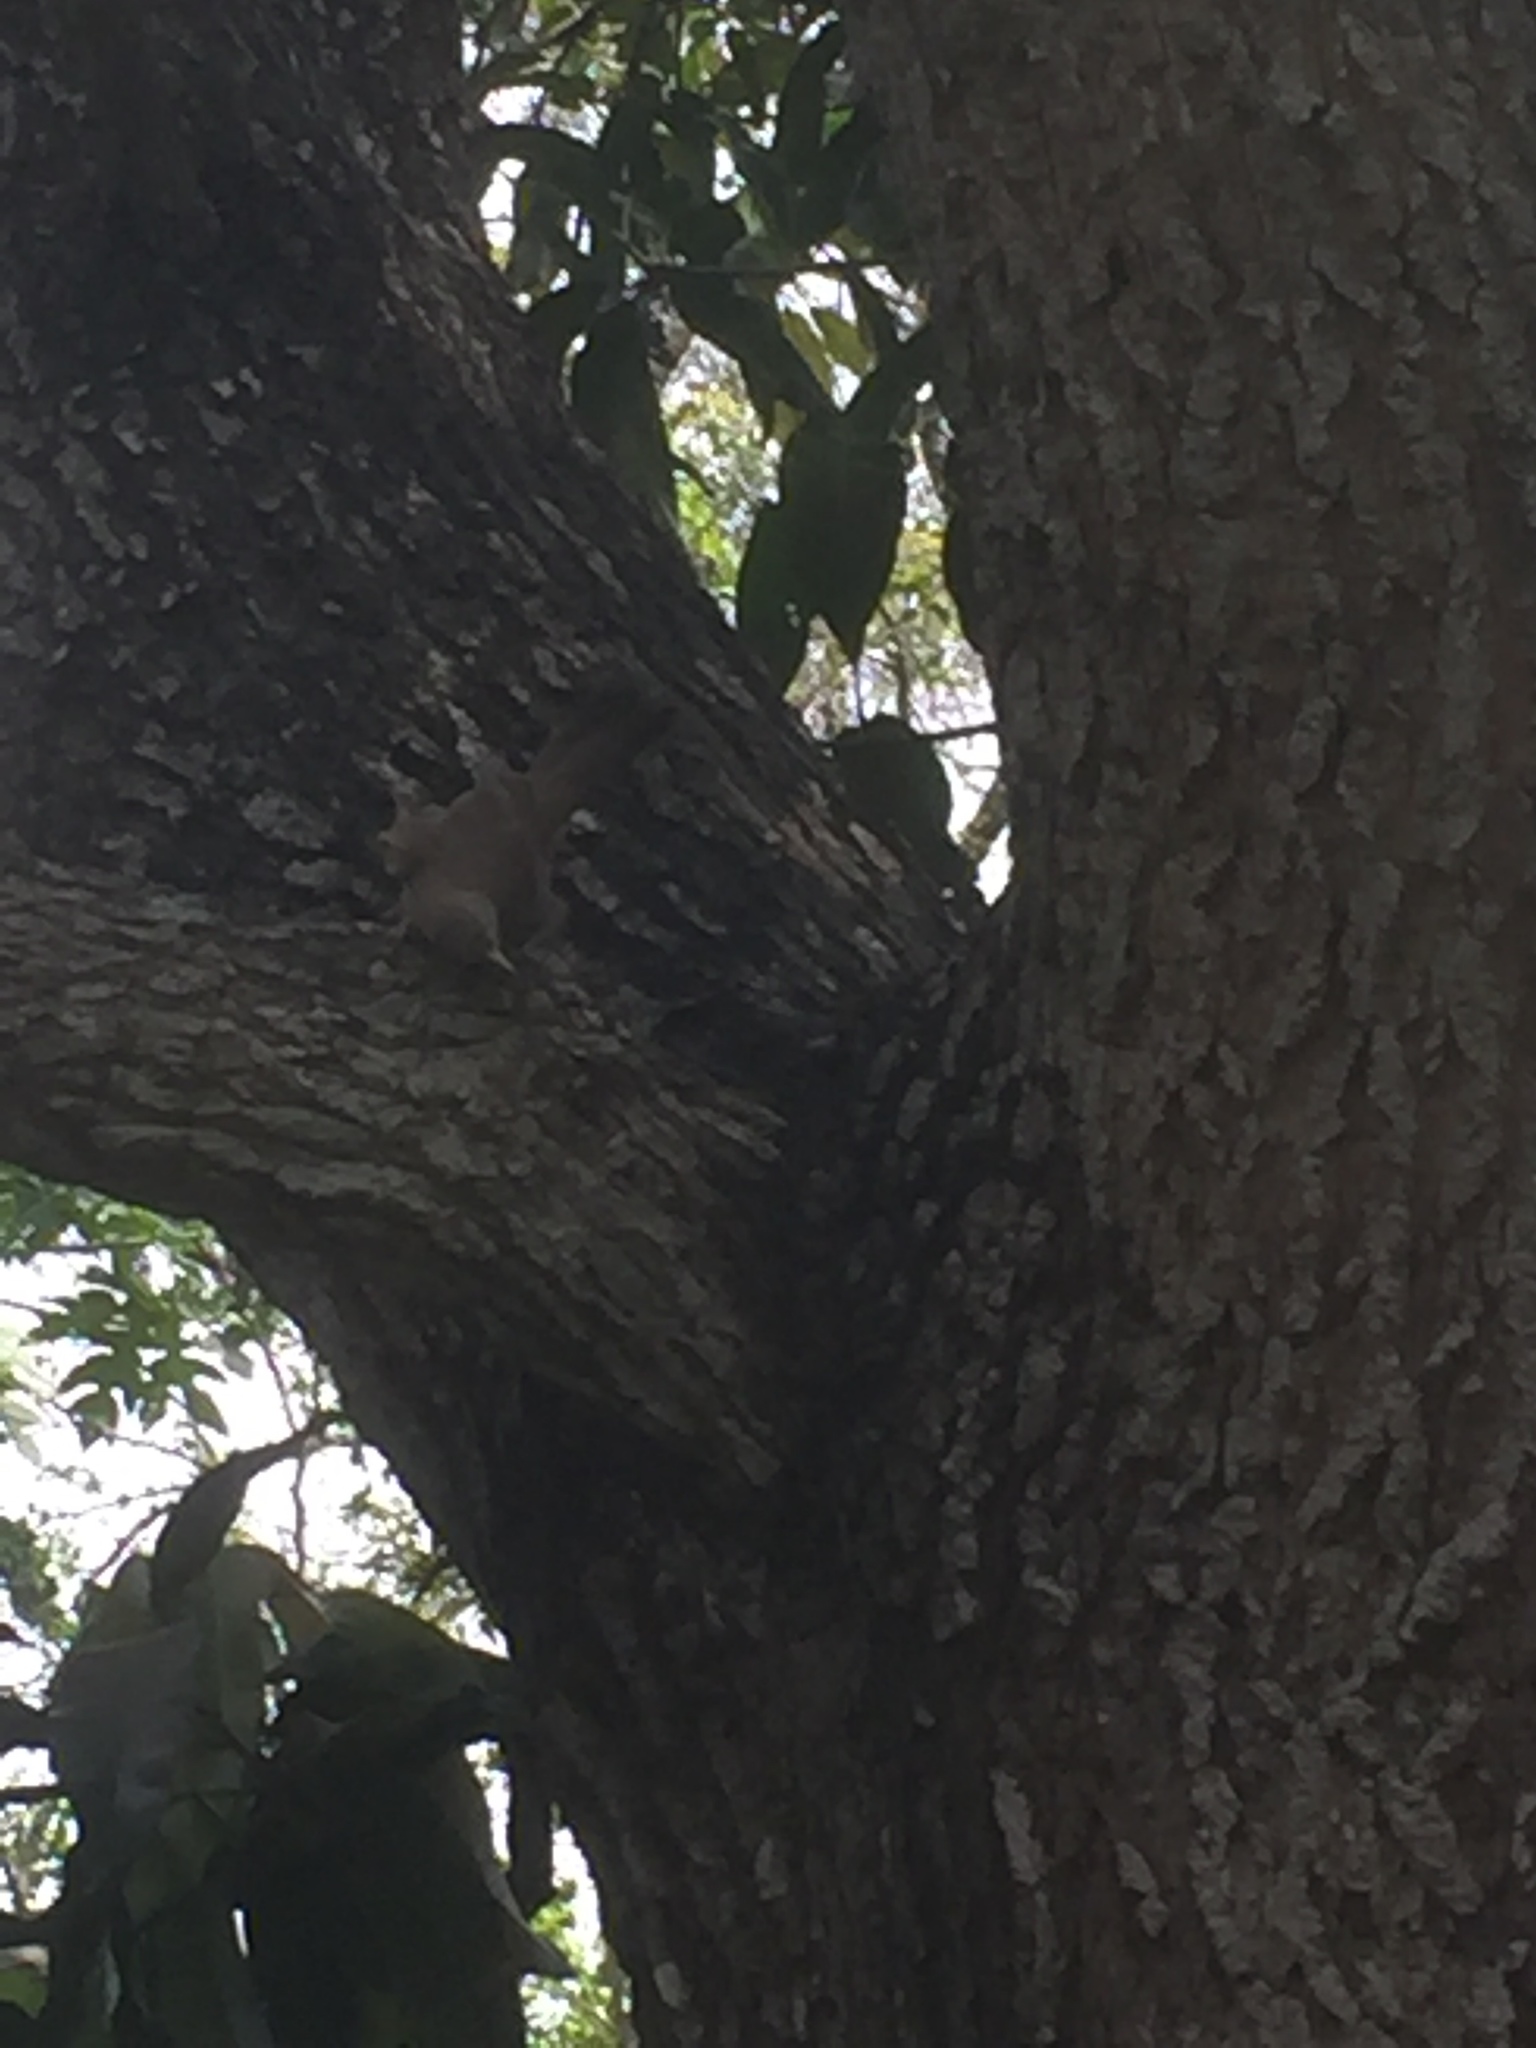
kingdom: Animalia
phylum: Chordata
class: Aves
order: Passeriformes
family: Leiothrichidae
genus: Turdoides
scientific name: Turdoides affinis
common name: Yellow-billed babbler
